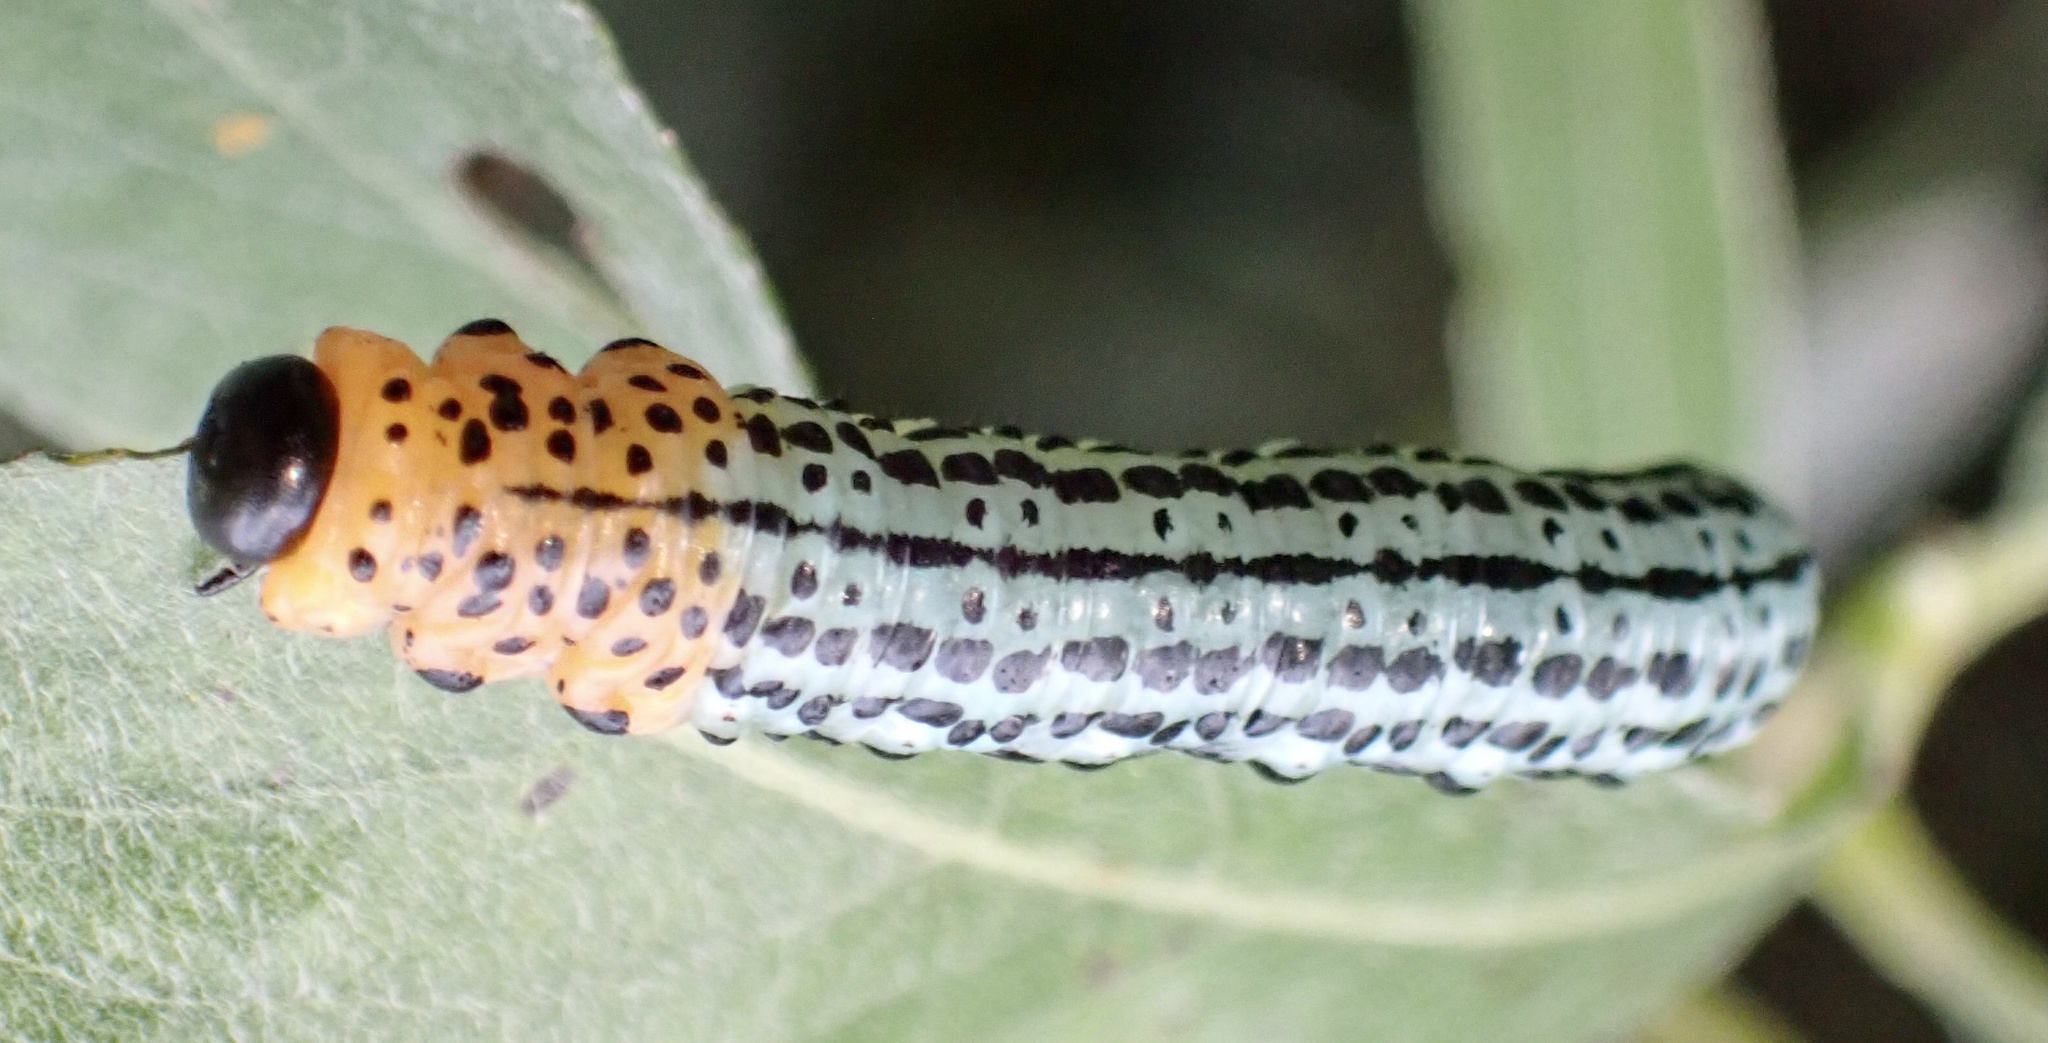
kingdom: Animalia
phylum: Arthropoda
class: Insecta
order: Hymenoptera
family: Tenthredinidae
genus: Nematus
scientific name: Nematus salicis
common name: Willow sawfly
